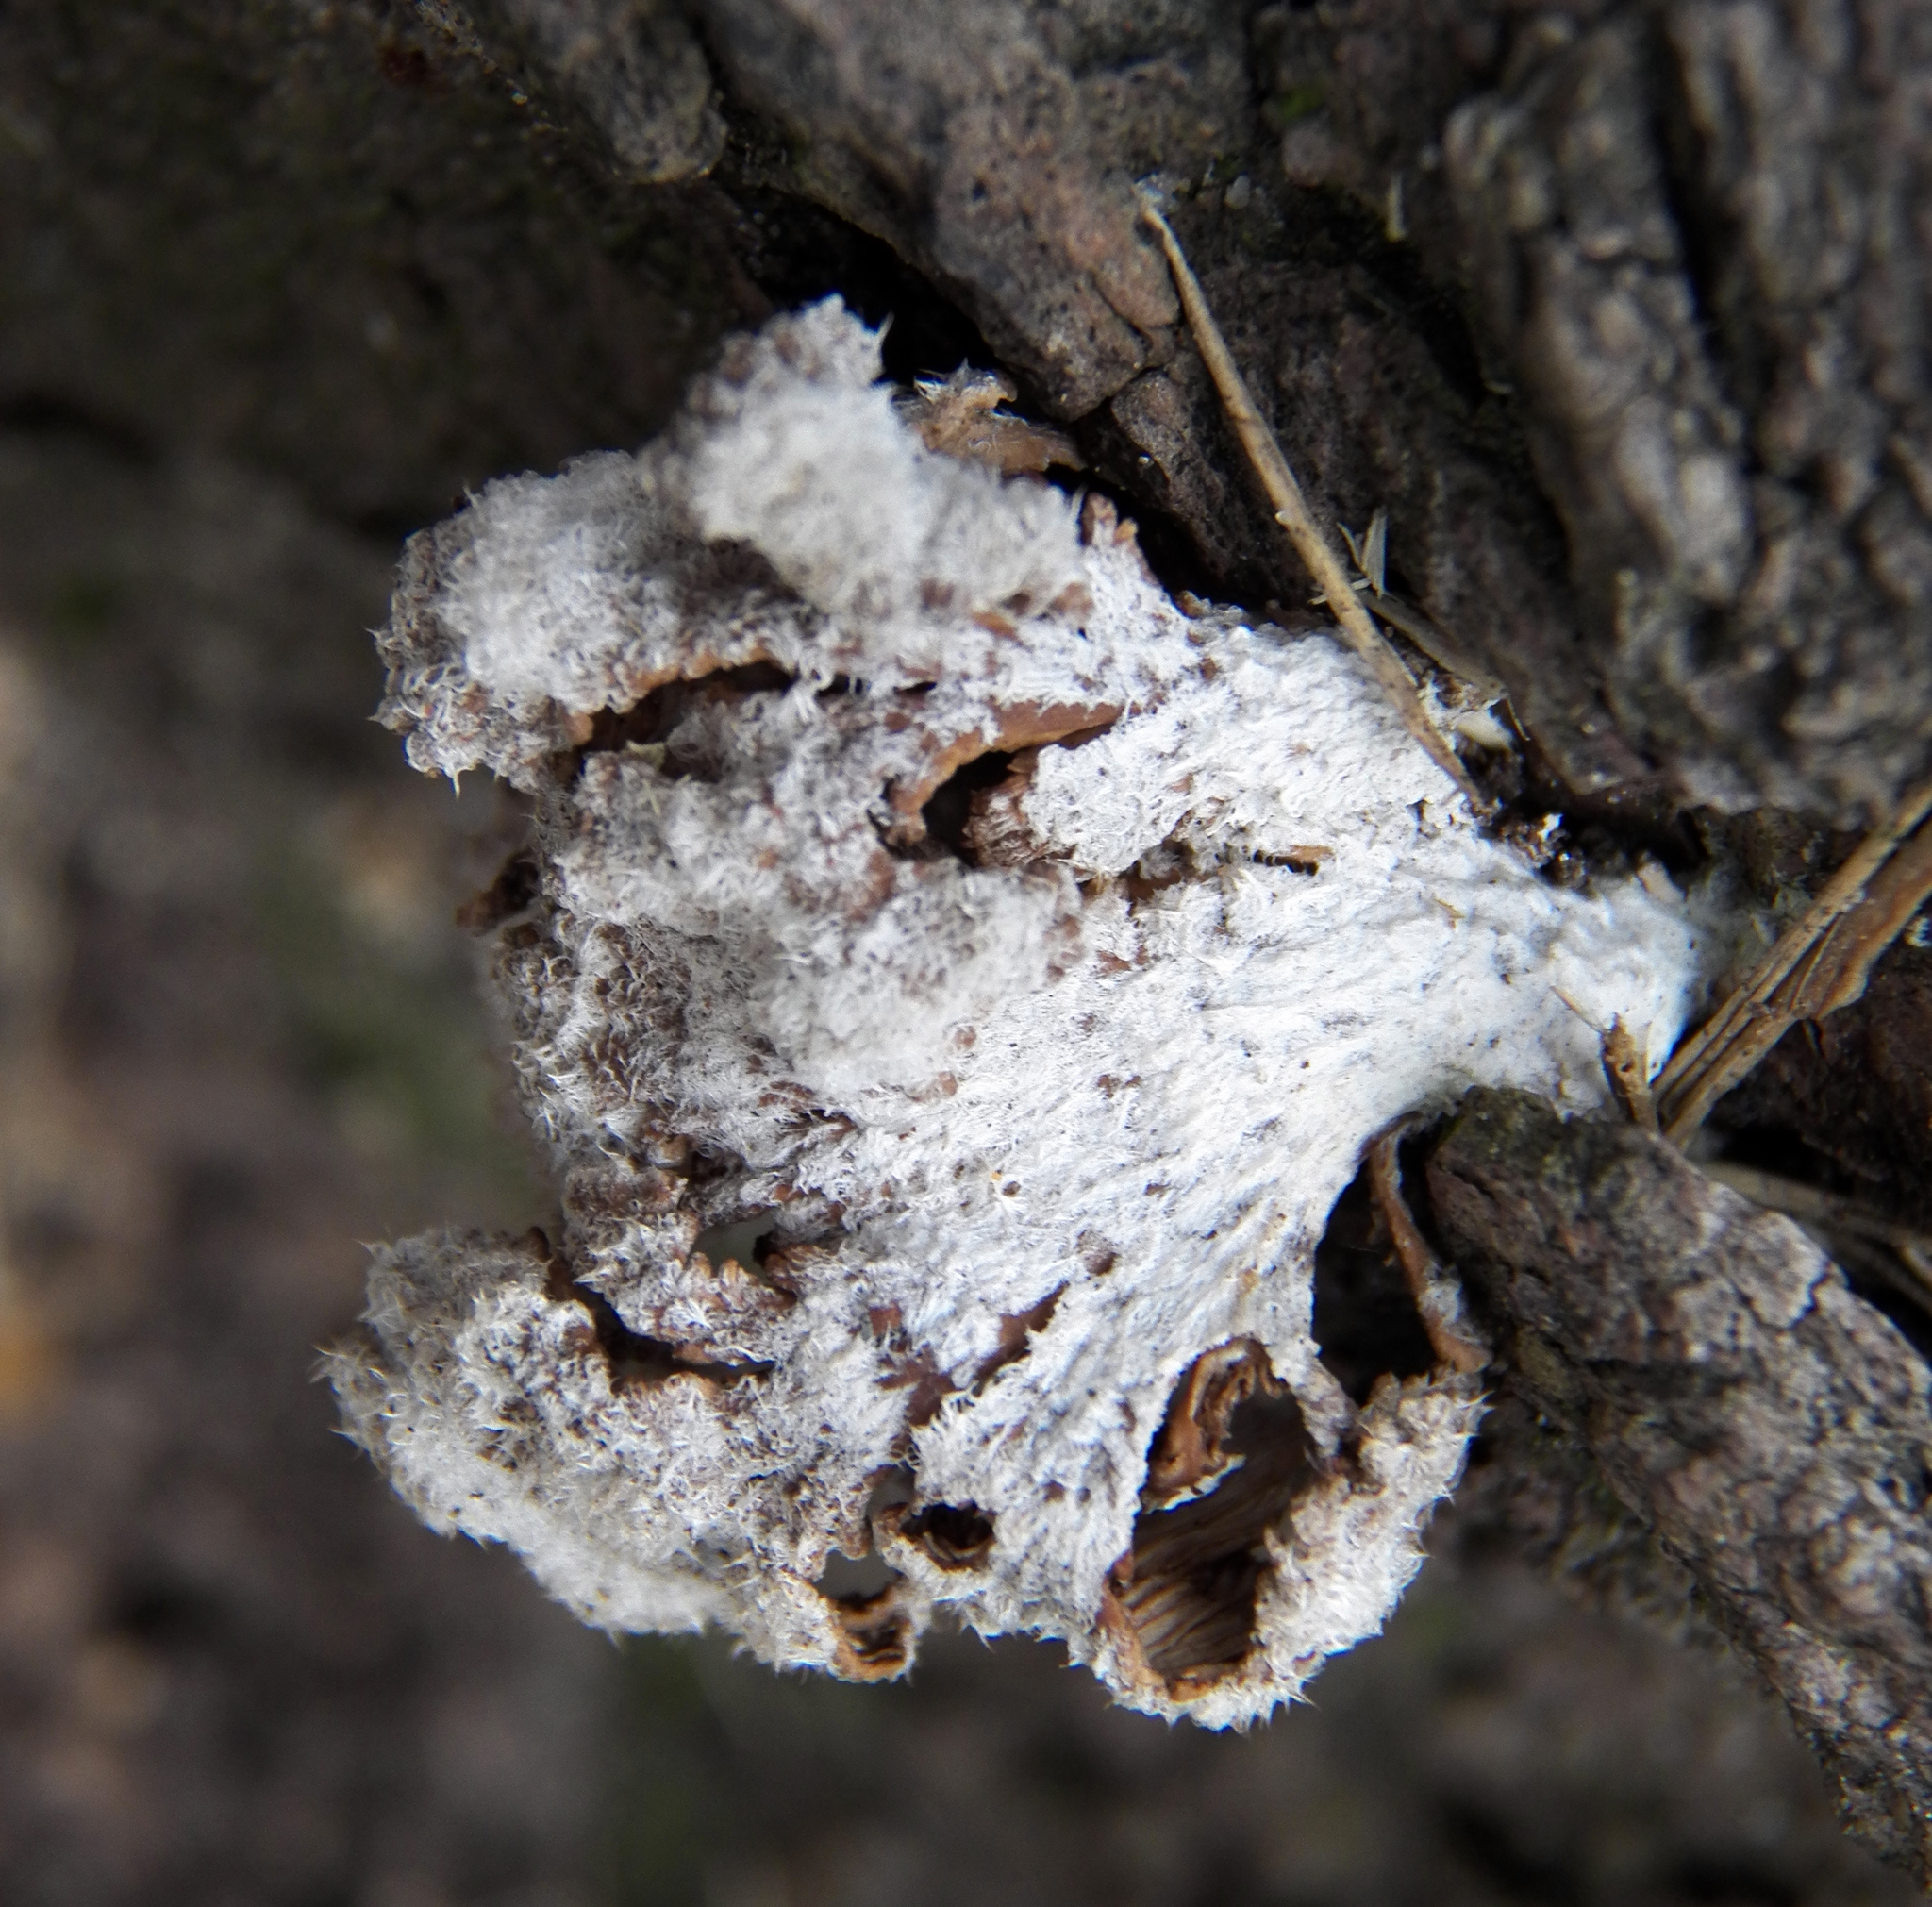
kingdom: Fungi
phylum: Basidiomycota
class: Agaricomycetes
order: Agaricales
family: Schizophyllaceae
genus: Schizophyllum
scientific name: Schizophyllum commune
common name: Common porecrust
